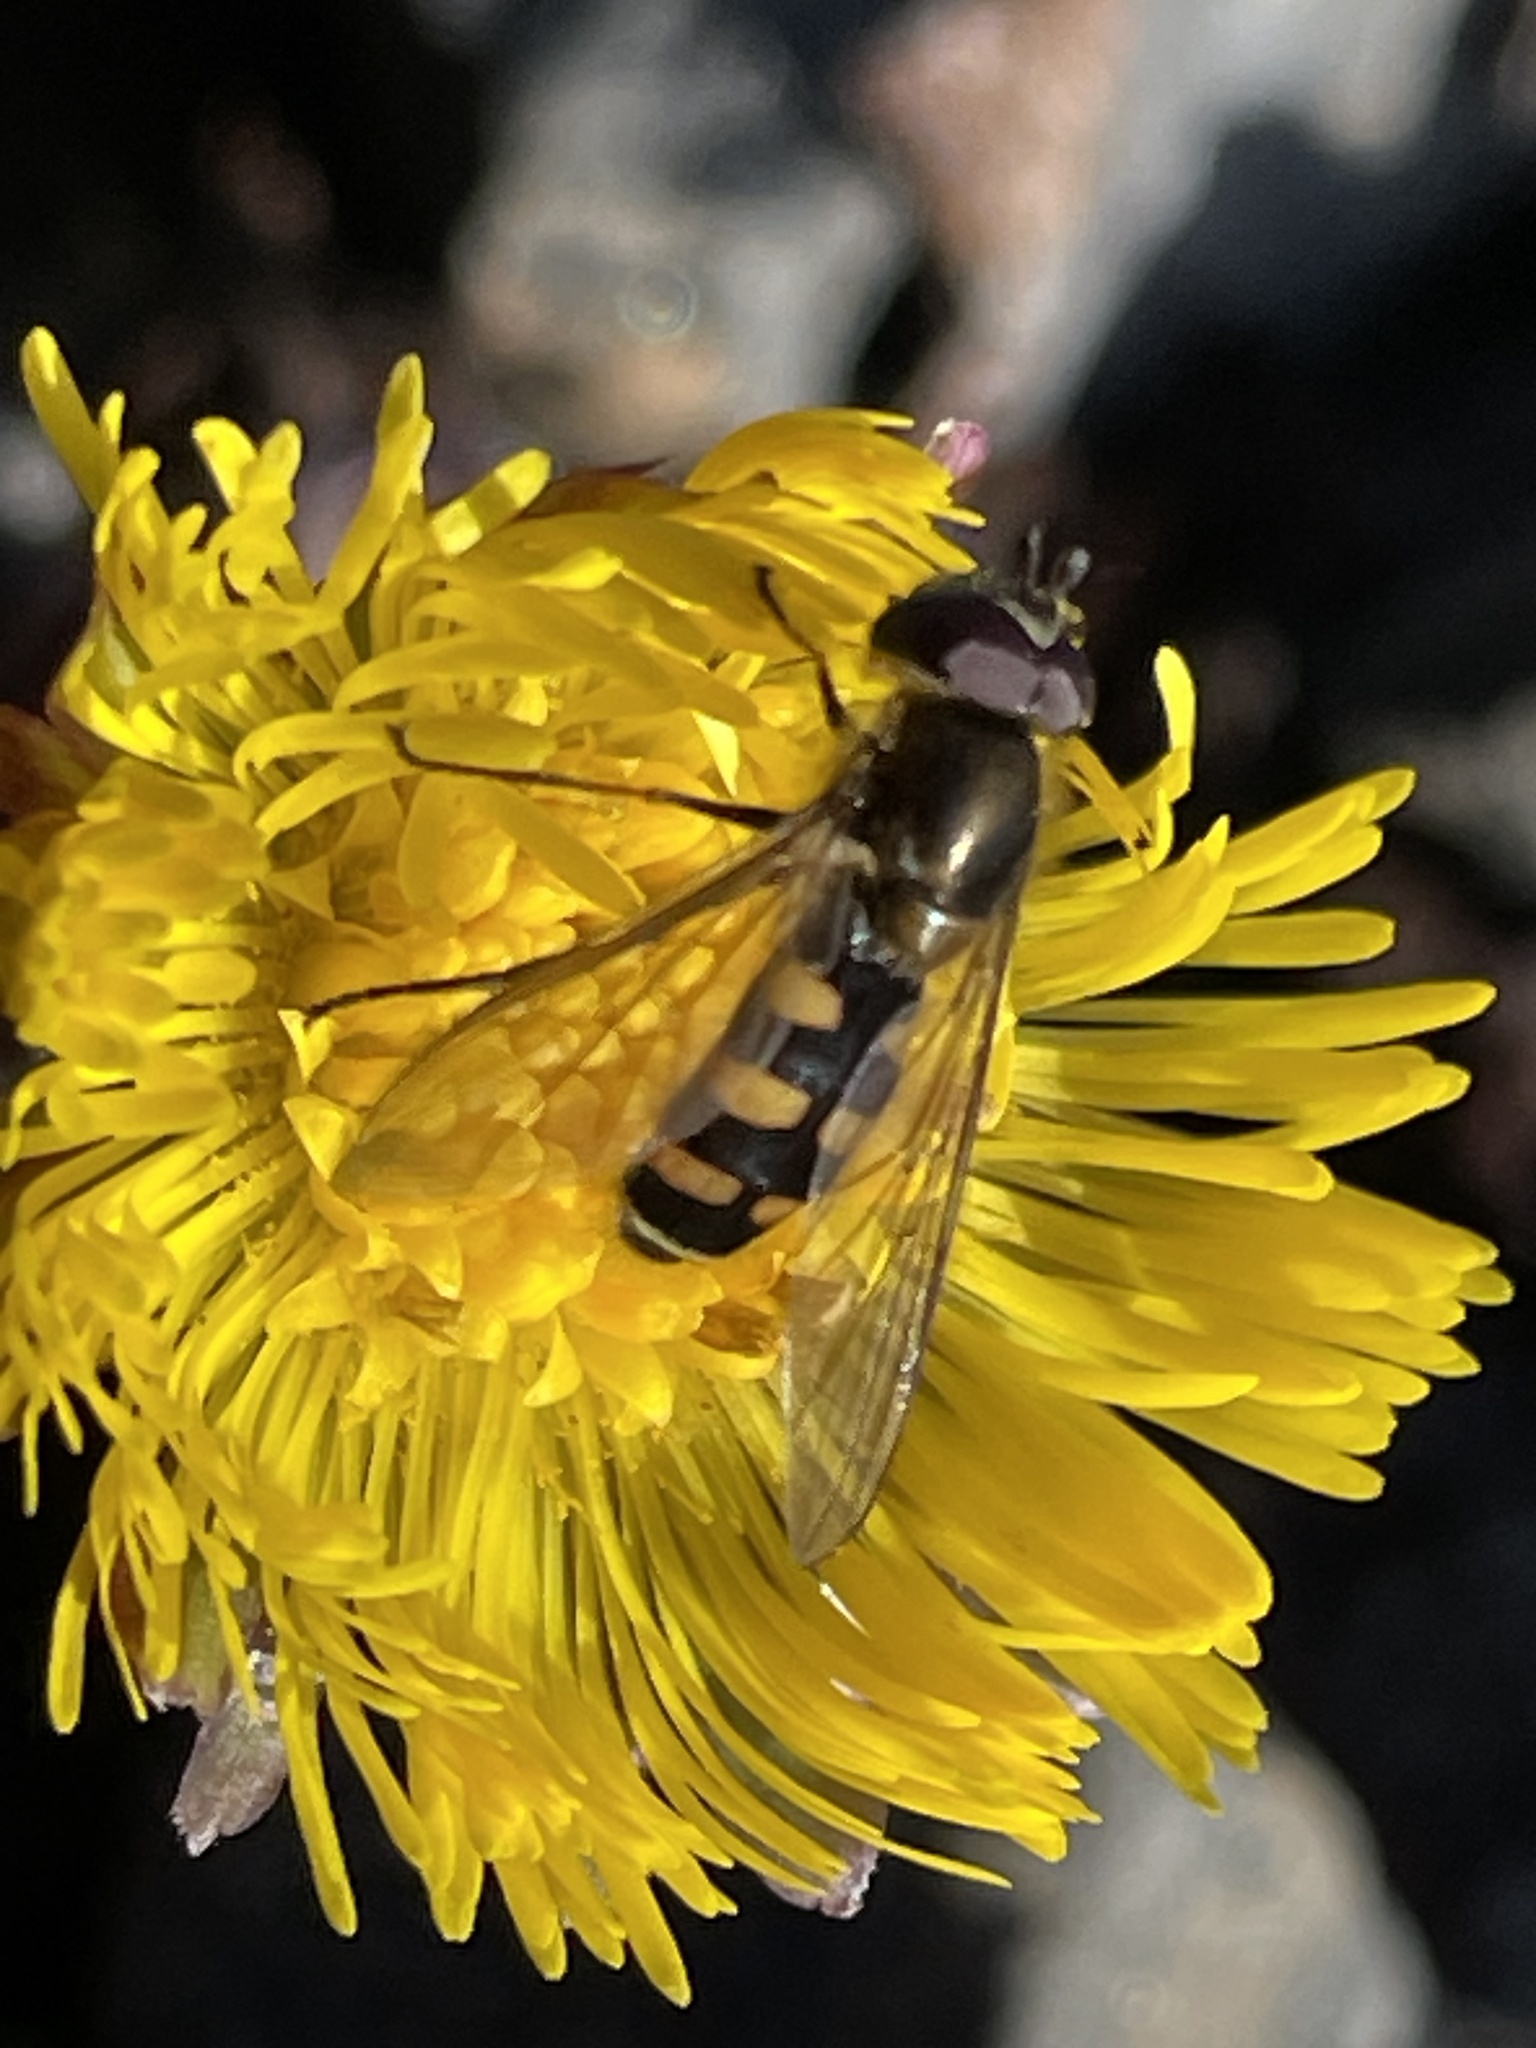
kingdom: Animalia
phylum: Arthropoda
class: Insecta
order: Diptera
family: Syrphidae
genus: Melangyna
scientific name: Melangyna lasiophthalma
